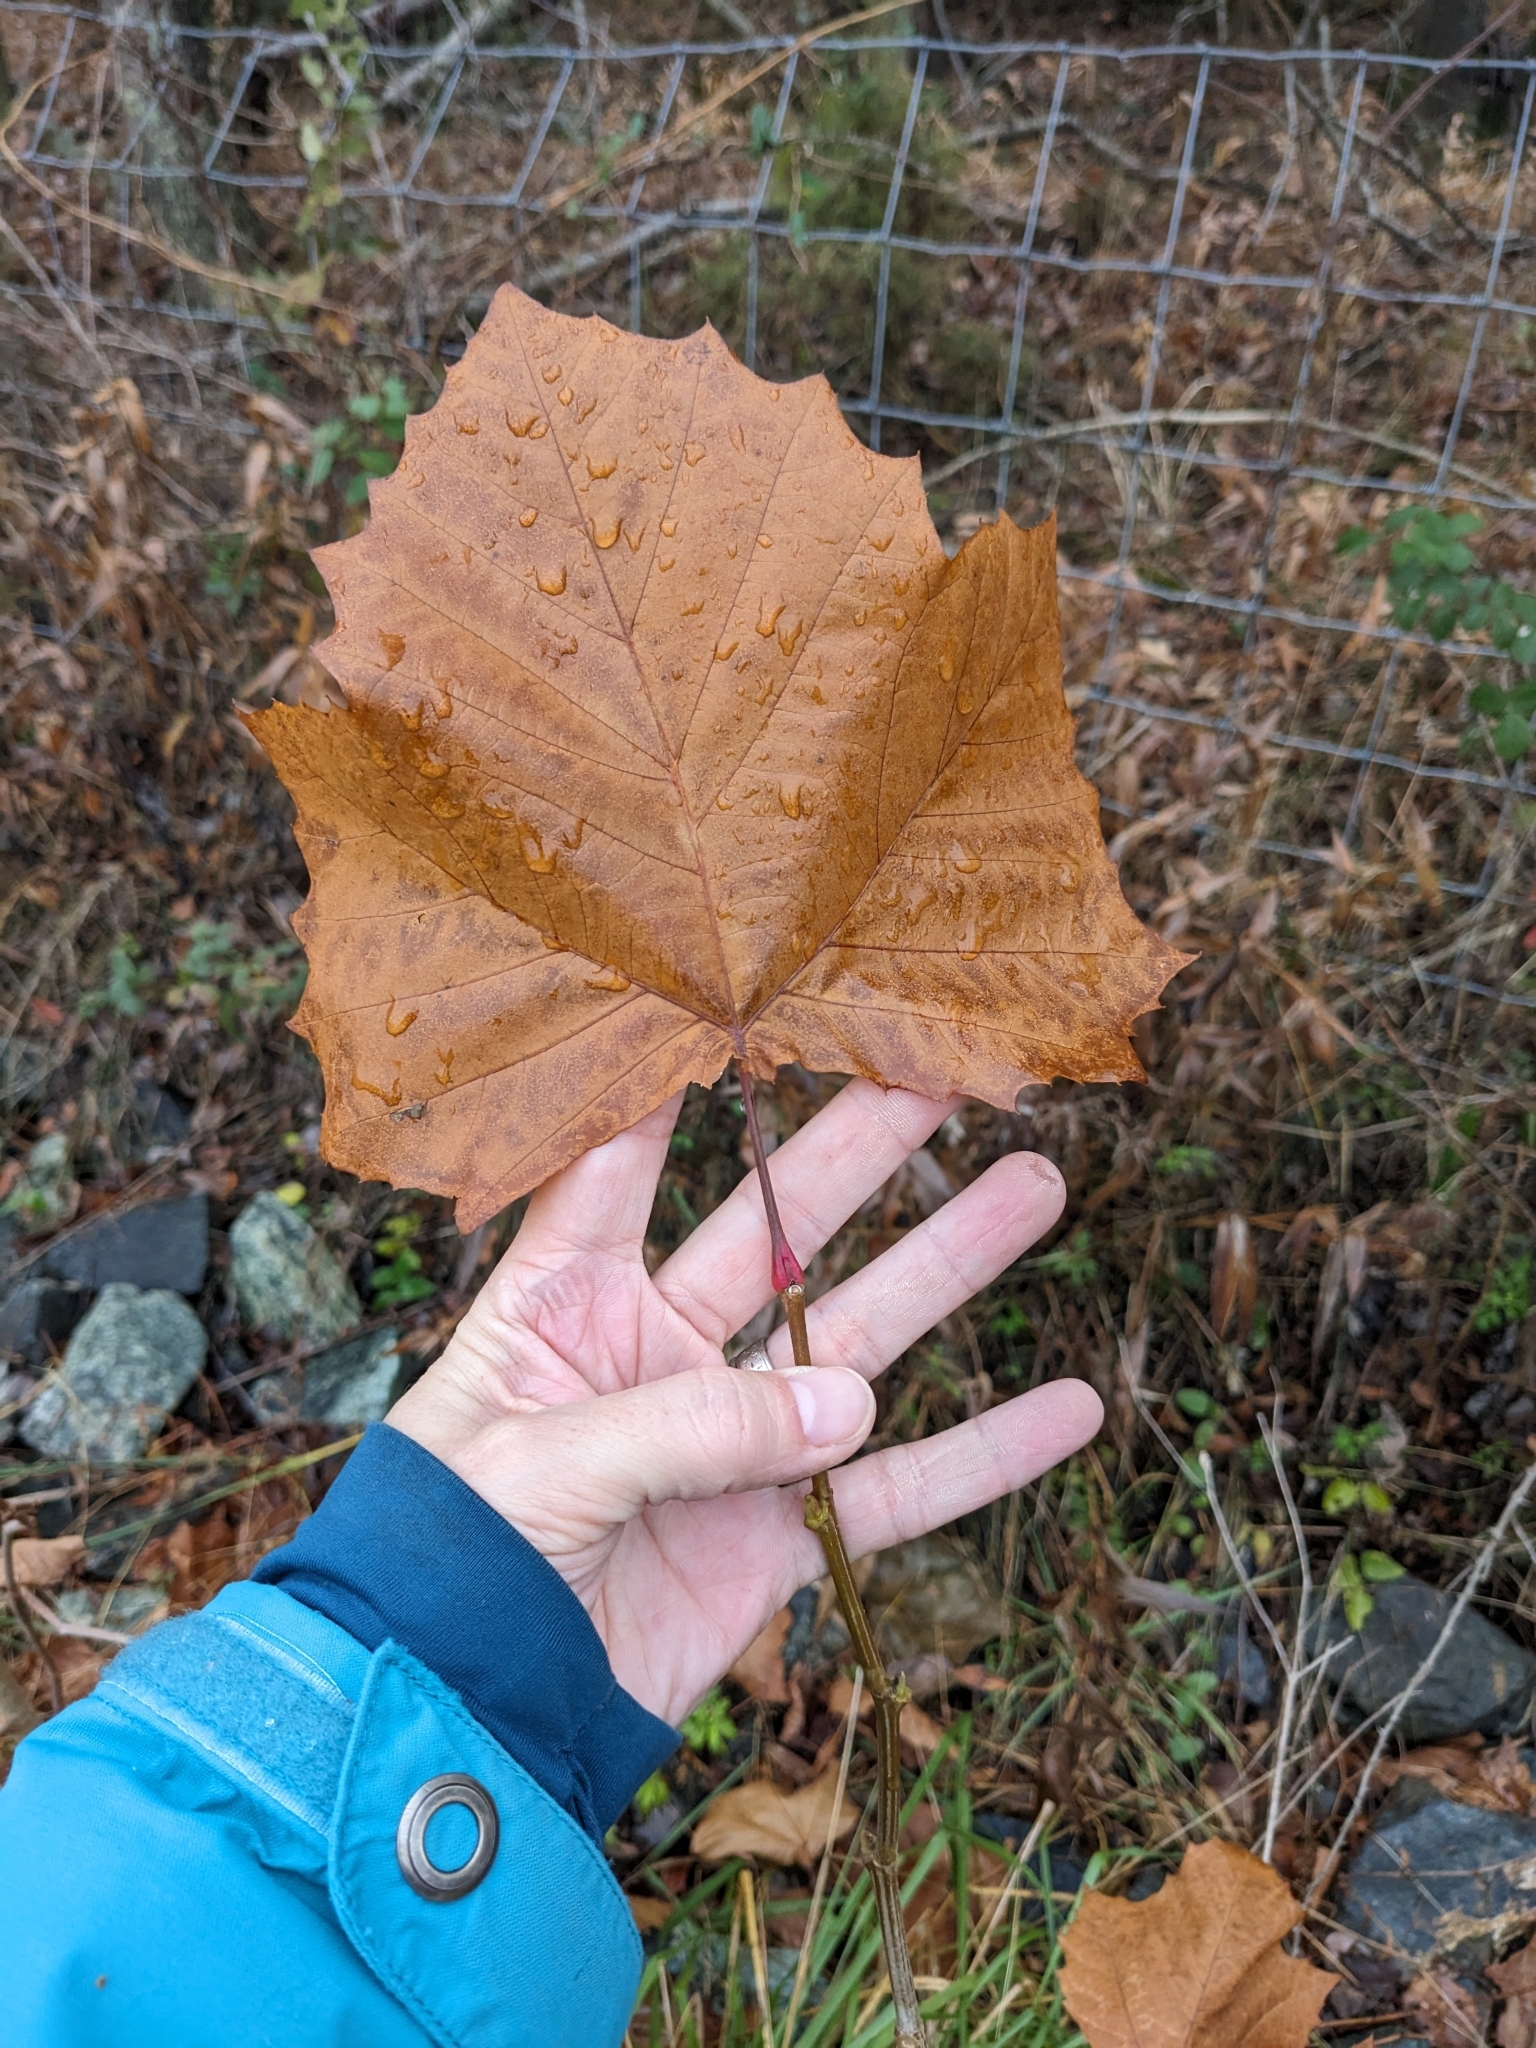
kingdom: Plantae
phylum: Tracheophyta
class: Magnoliopsida
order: Proteales
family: Platanaceae
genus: Platanus
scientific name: Platanus occidentalis
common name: American sycamore
